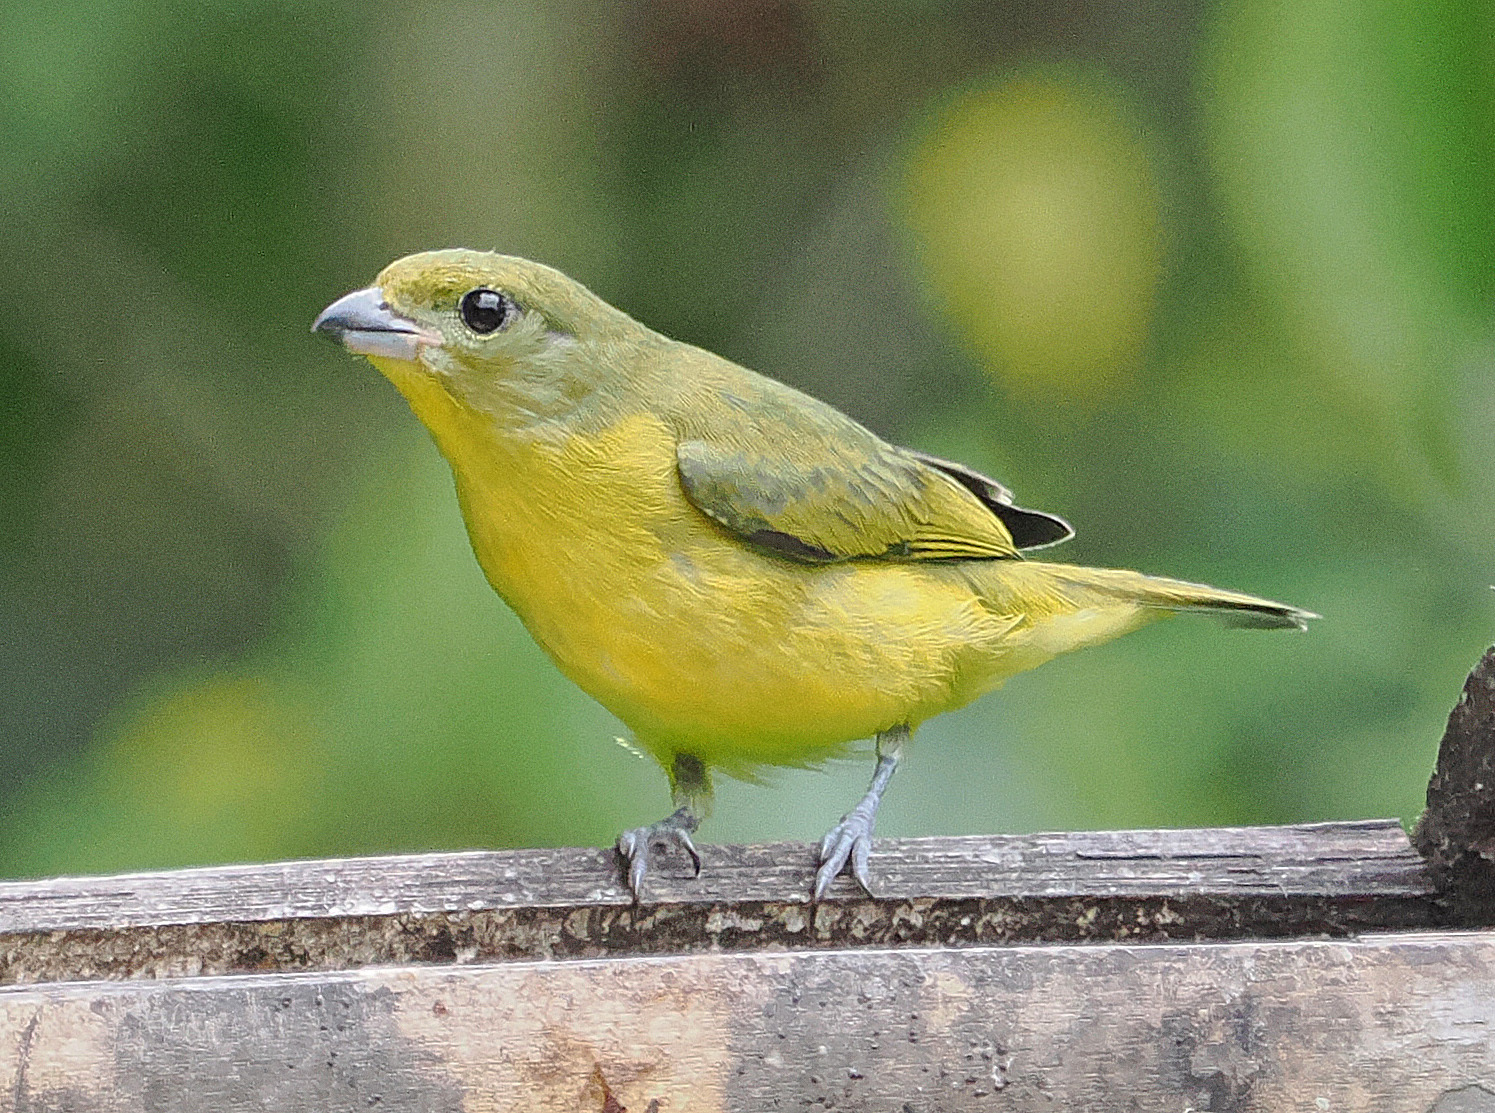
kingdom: Animalia
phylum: Chordata
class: Aves
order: Passeriformes
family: Fringillidae
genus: Euphonia
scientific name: Euphonia laniirostris
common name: Thick-billed euphonia
